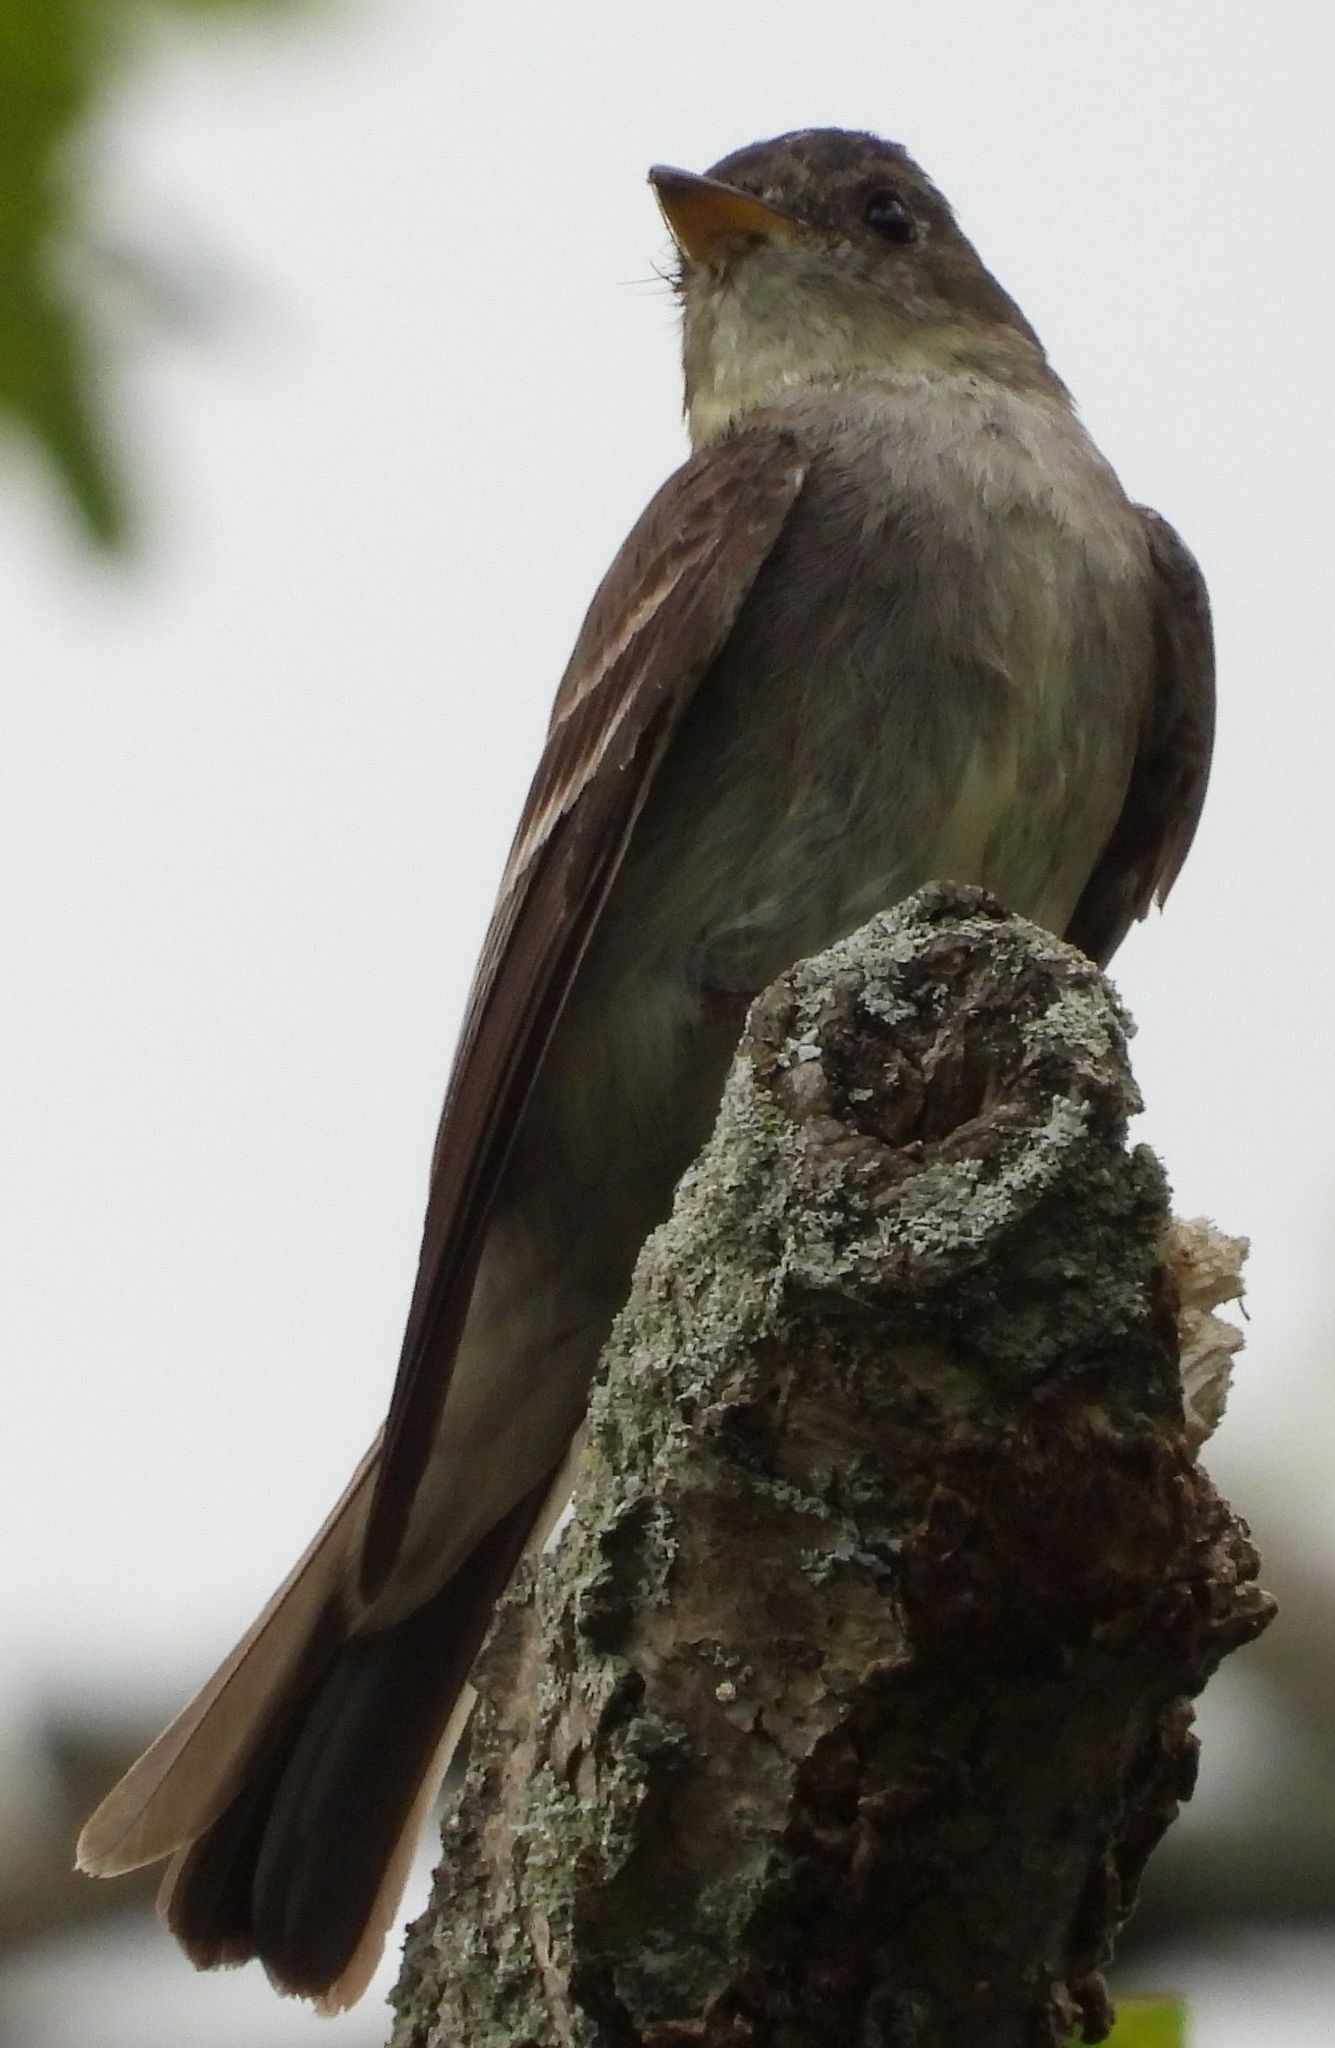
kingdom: Animalia
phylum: Chordata
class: Aves
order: Passeriformes
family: Tyrannidae
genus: Contopus
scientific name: Contopus virens
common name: Eastern wood-pewee
